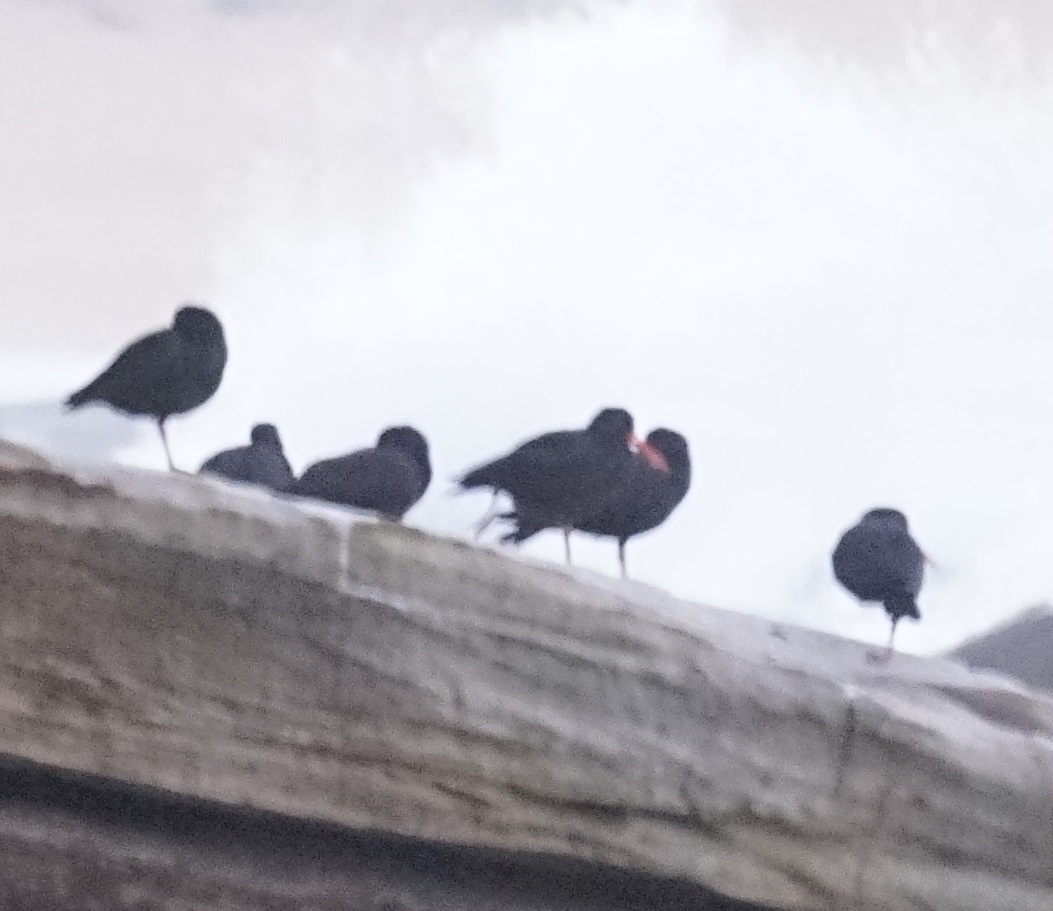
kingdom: Animalia
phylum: Chordata
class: Aves
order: Charadriiformes
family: Haematopodidae
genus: Haematopus
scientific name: Haematopus fuliginosus
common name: Sooty oystercatcher
